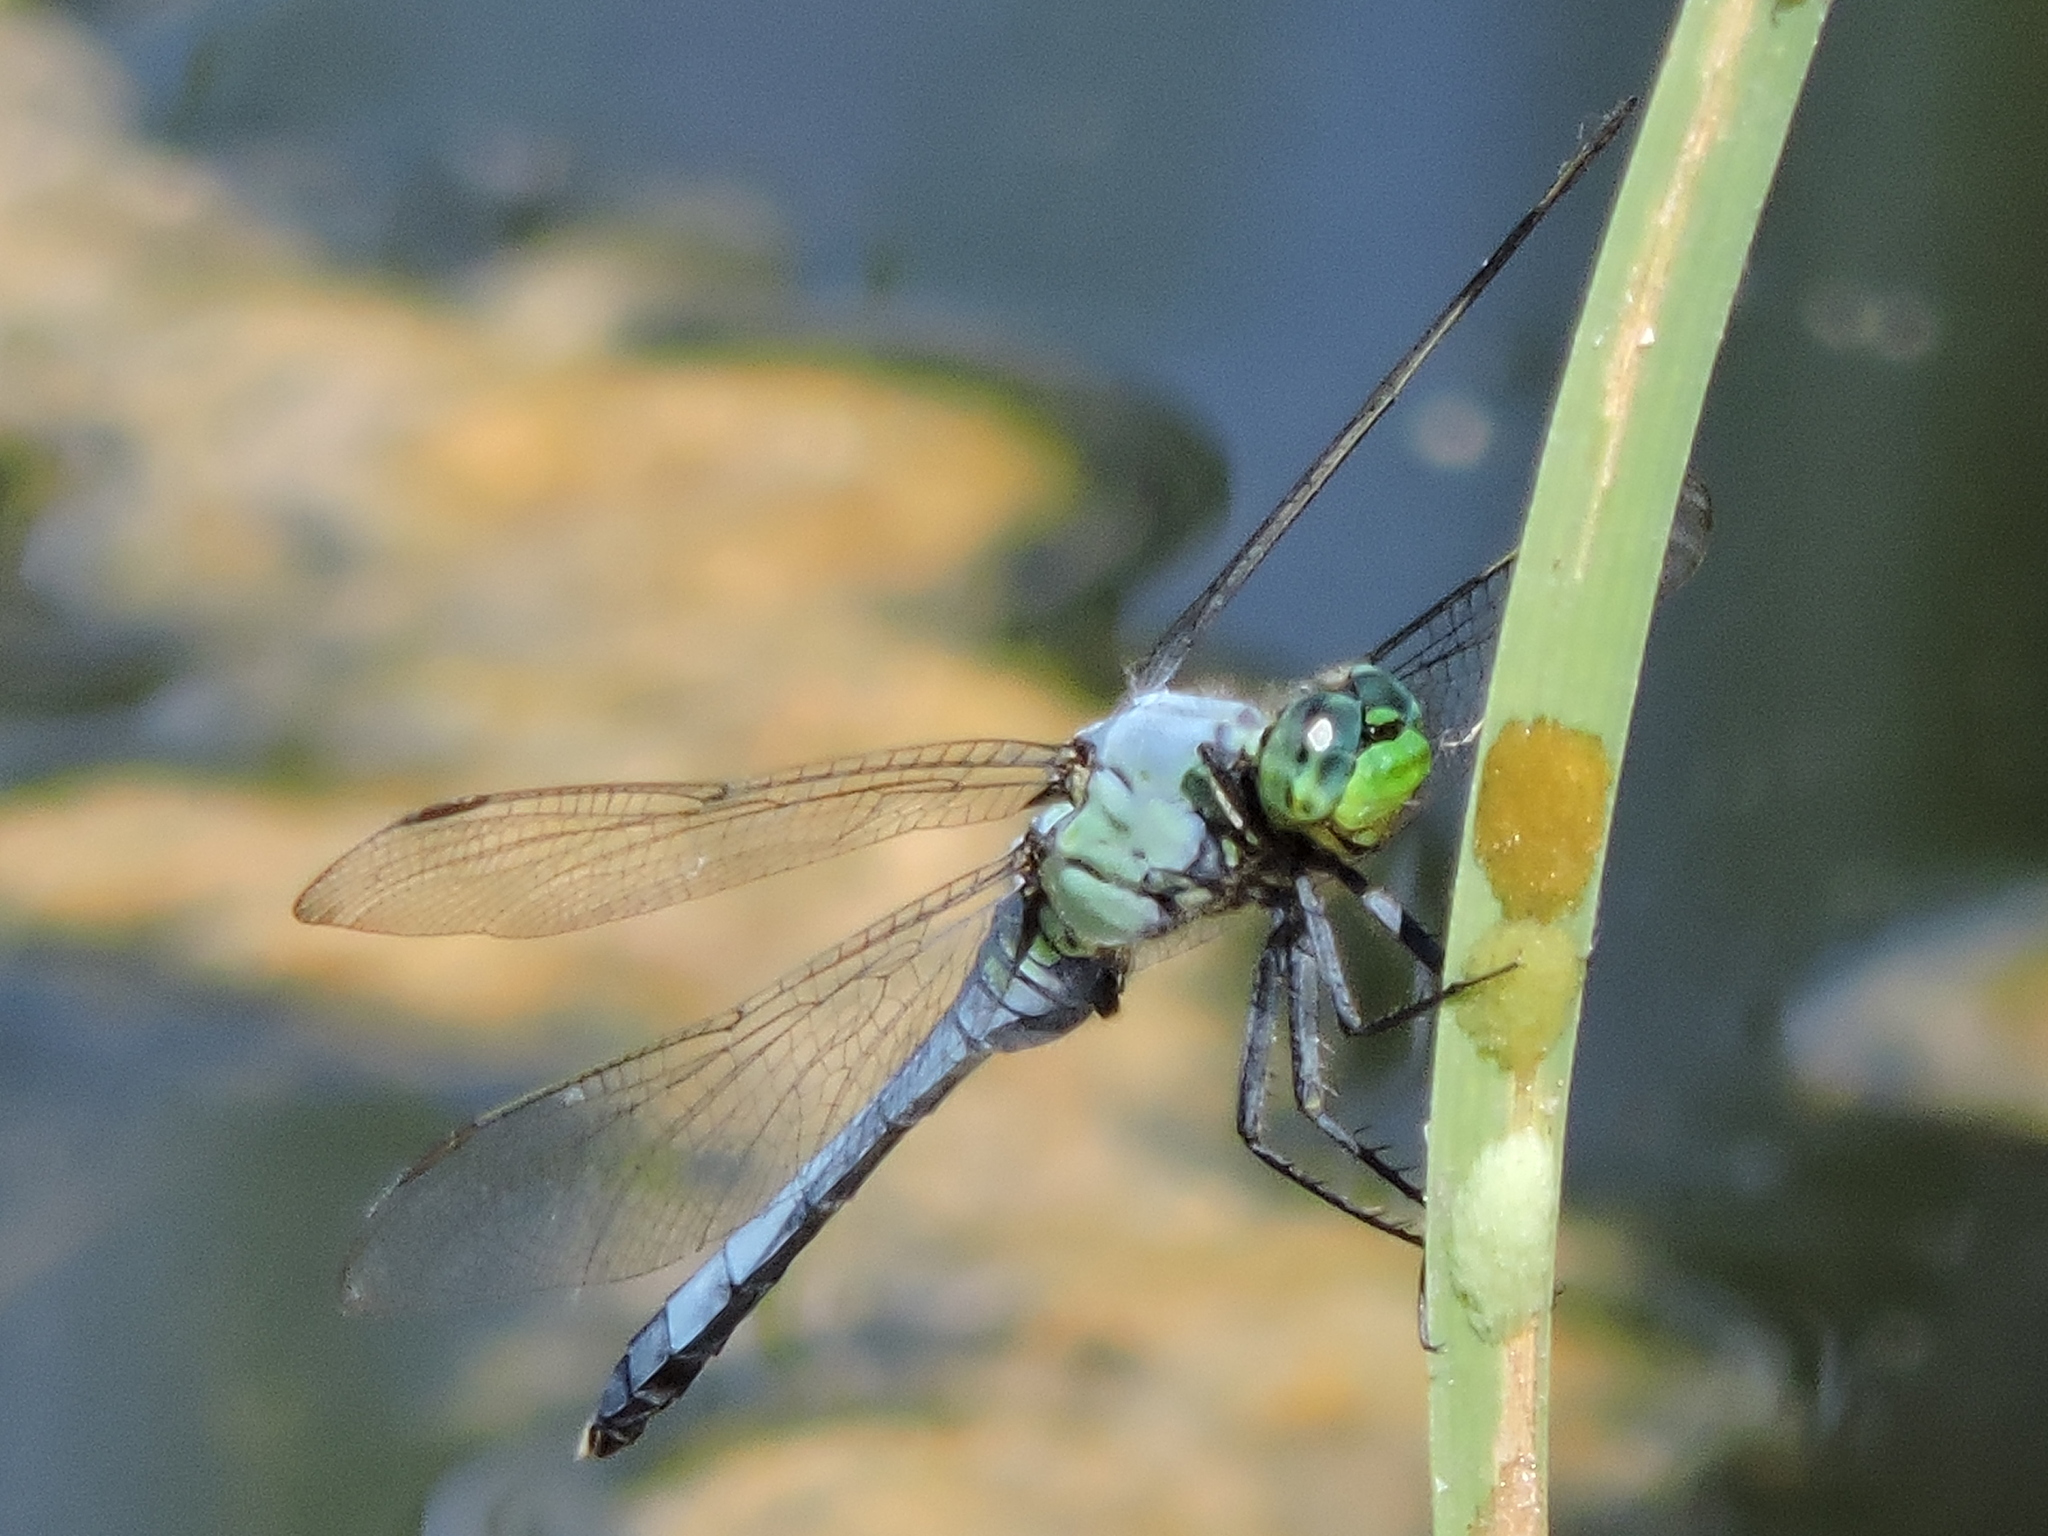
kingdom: Animalia
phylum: Arthropoda
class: Insecta
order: Odonata
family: Libellulidae
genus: Erythemis
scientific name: Erythemis simplicicollis
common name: Eastern pondhawk
